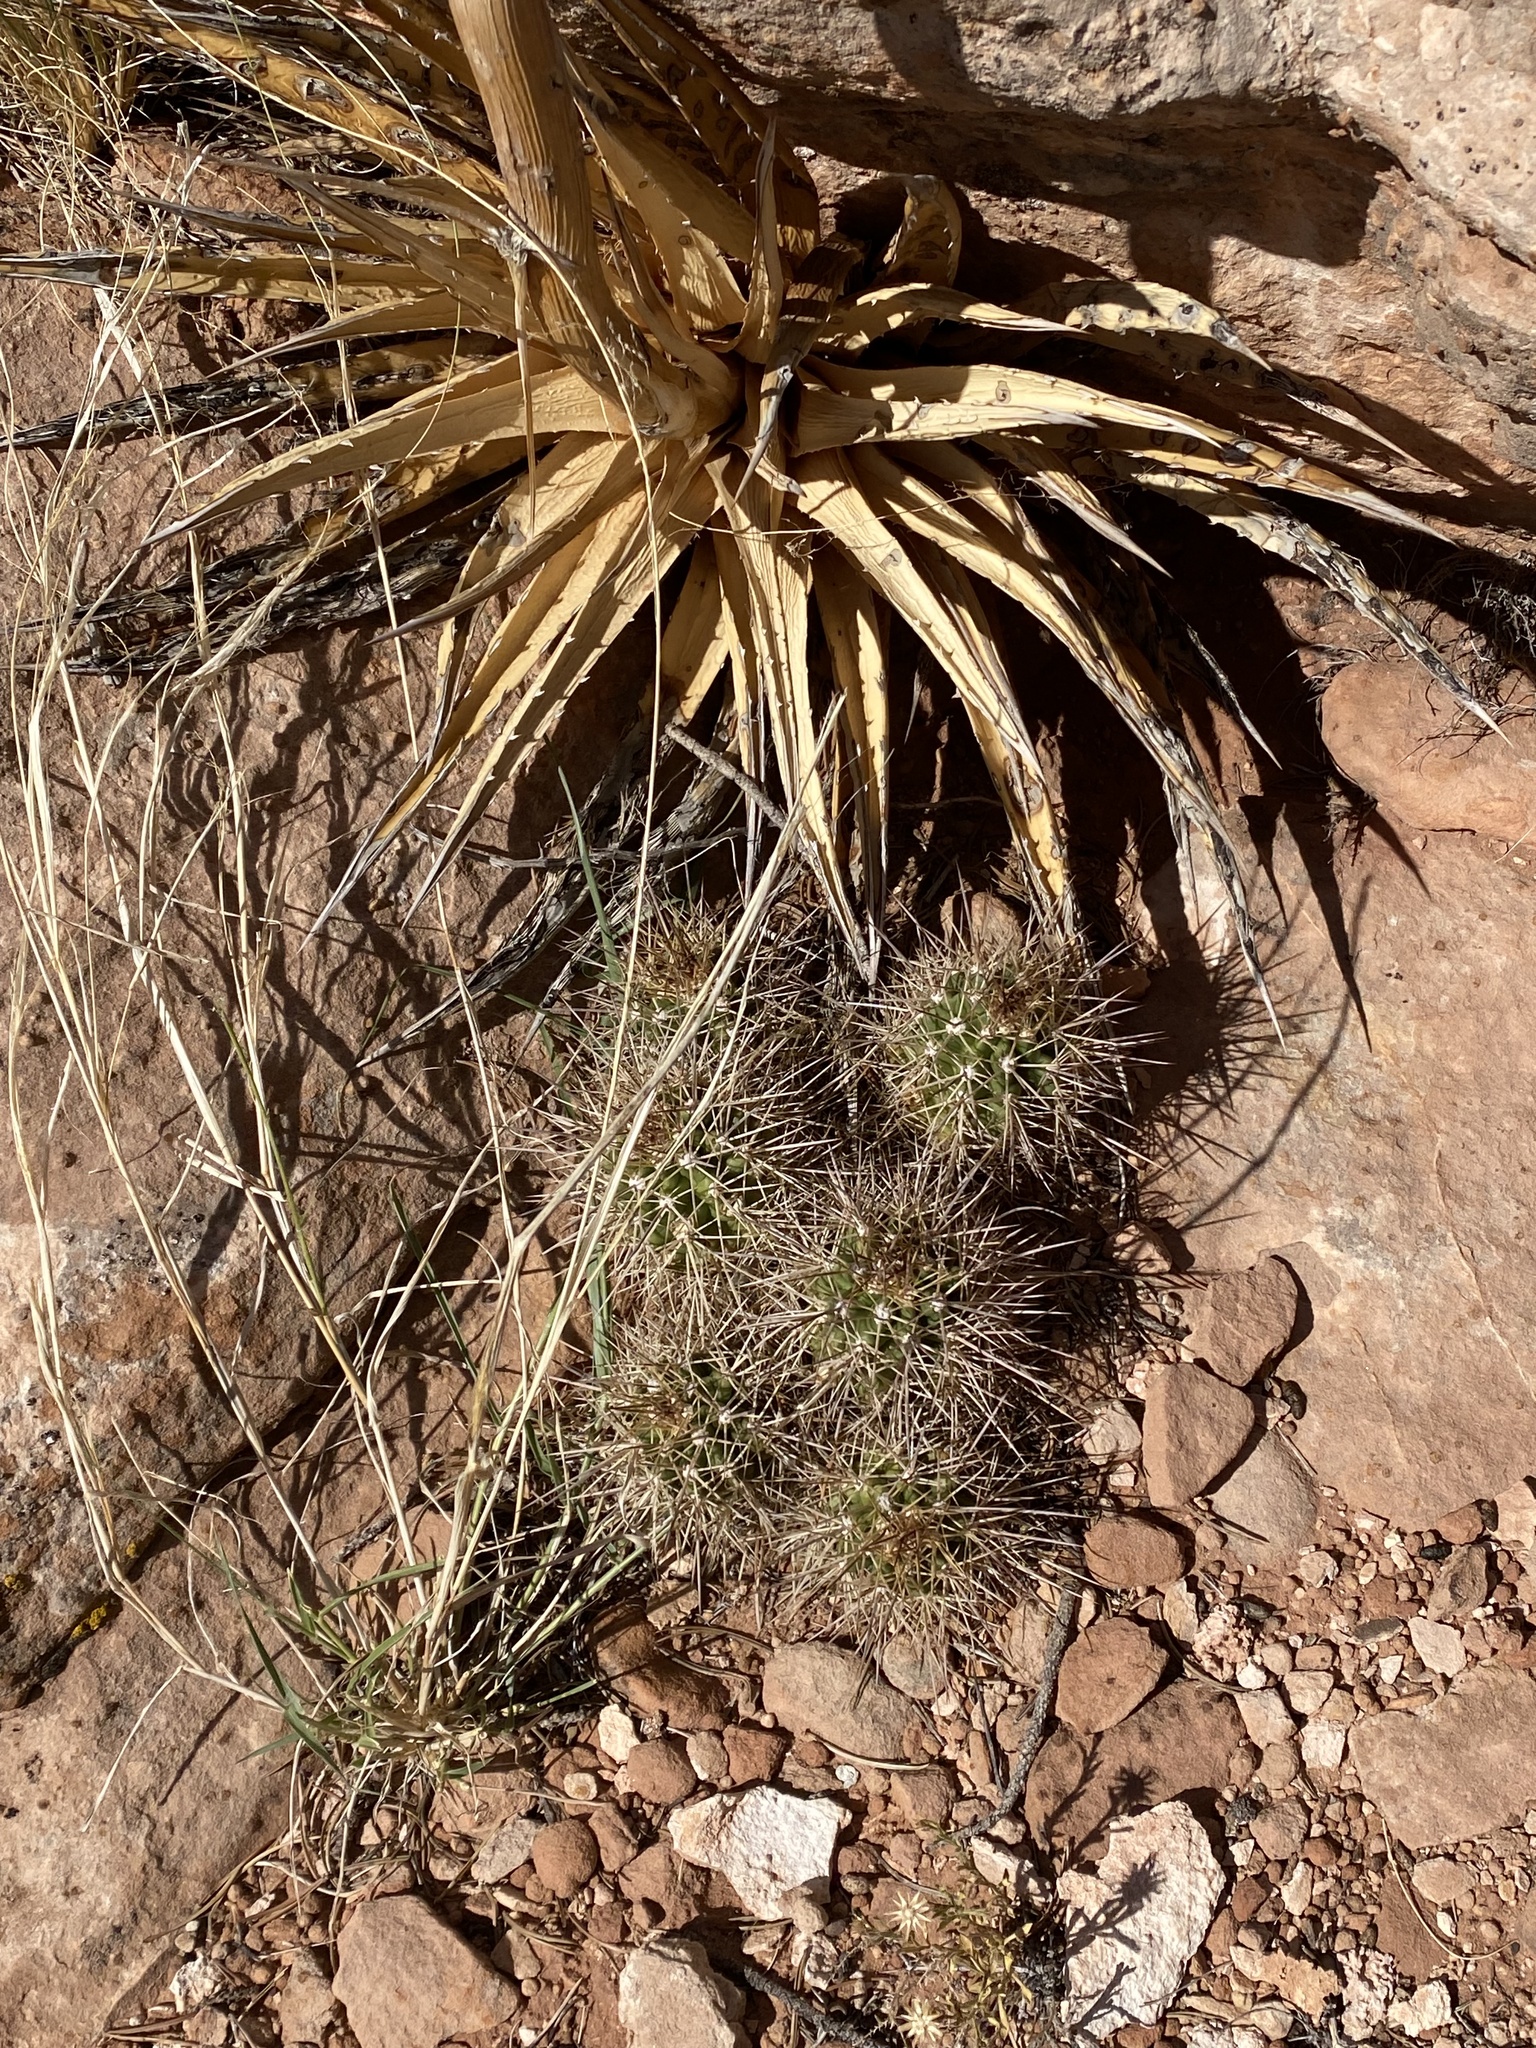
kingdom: Plantae
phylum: Tracheophyta
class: Magnoliopsida
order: Caryophyllales
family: Cactaceae
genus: Echinocereus
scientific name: Echinocereus triglochidiatus
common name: Claretcup hedgehog
